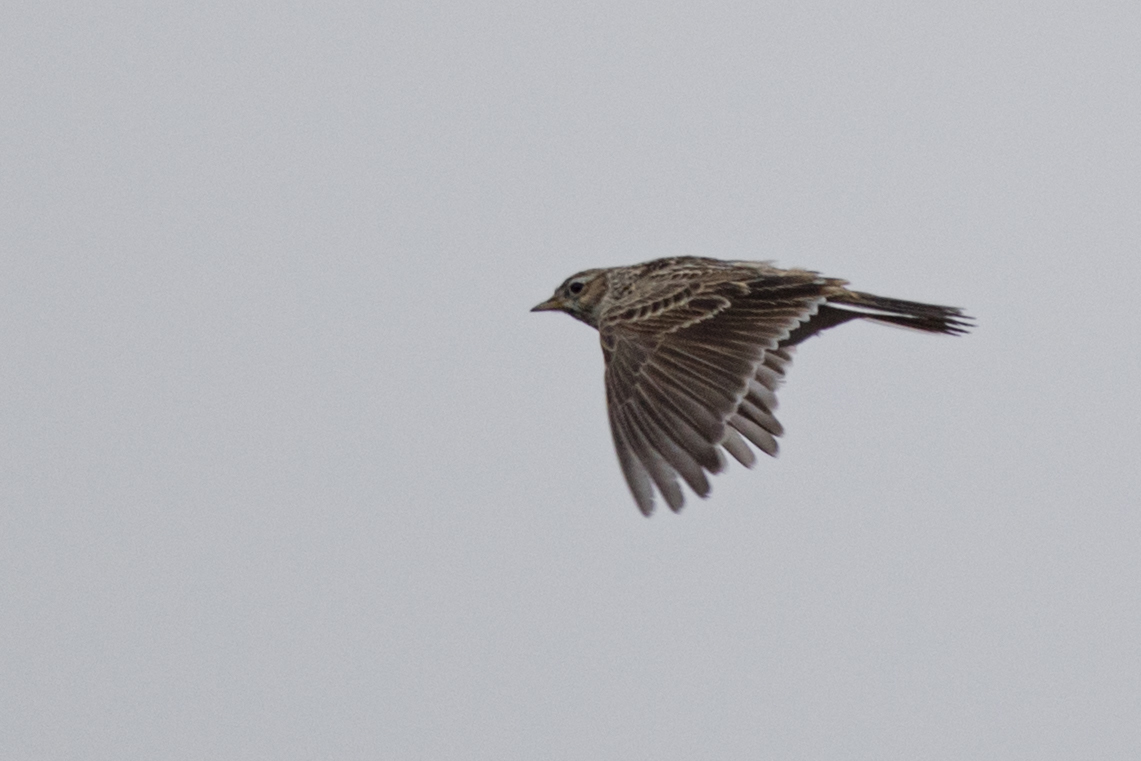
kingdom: Animalia
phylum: Chordata
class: Aves
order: Passeriformes
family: Alaudidae
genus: Alauda
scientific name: Alauda arvensis
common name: Eurasian skylark
